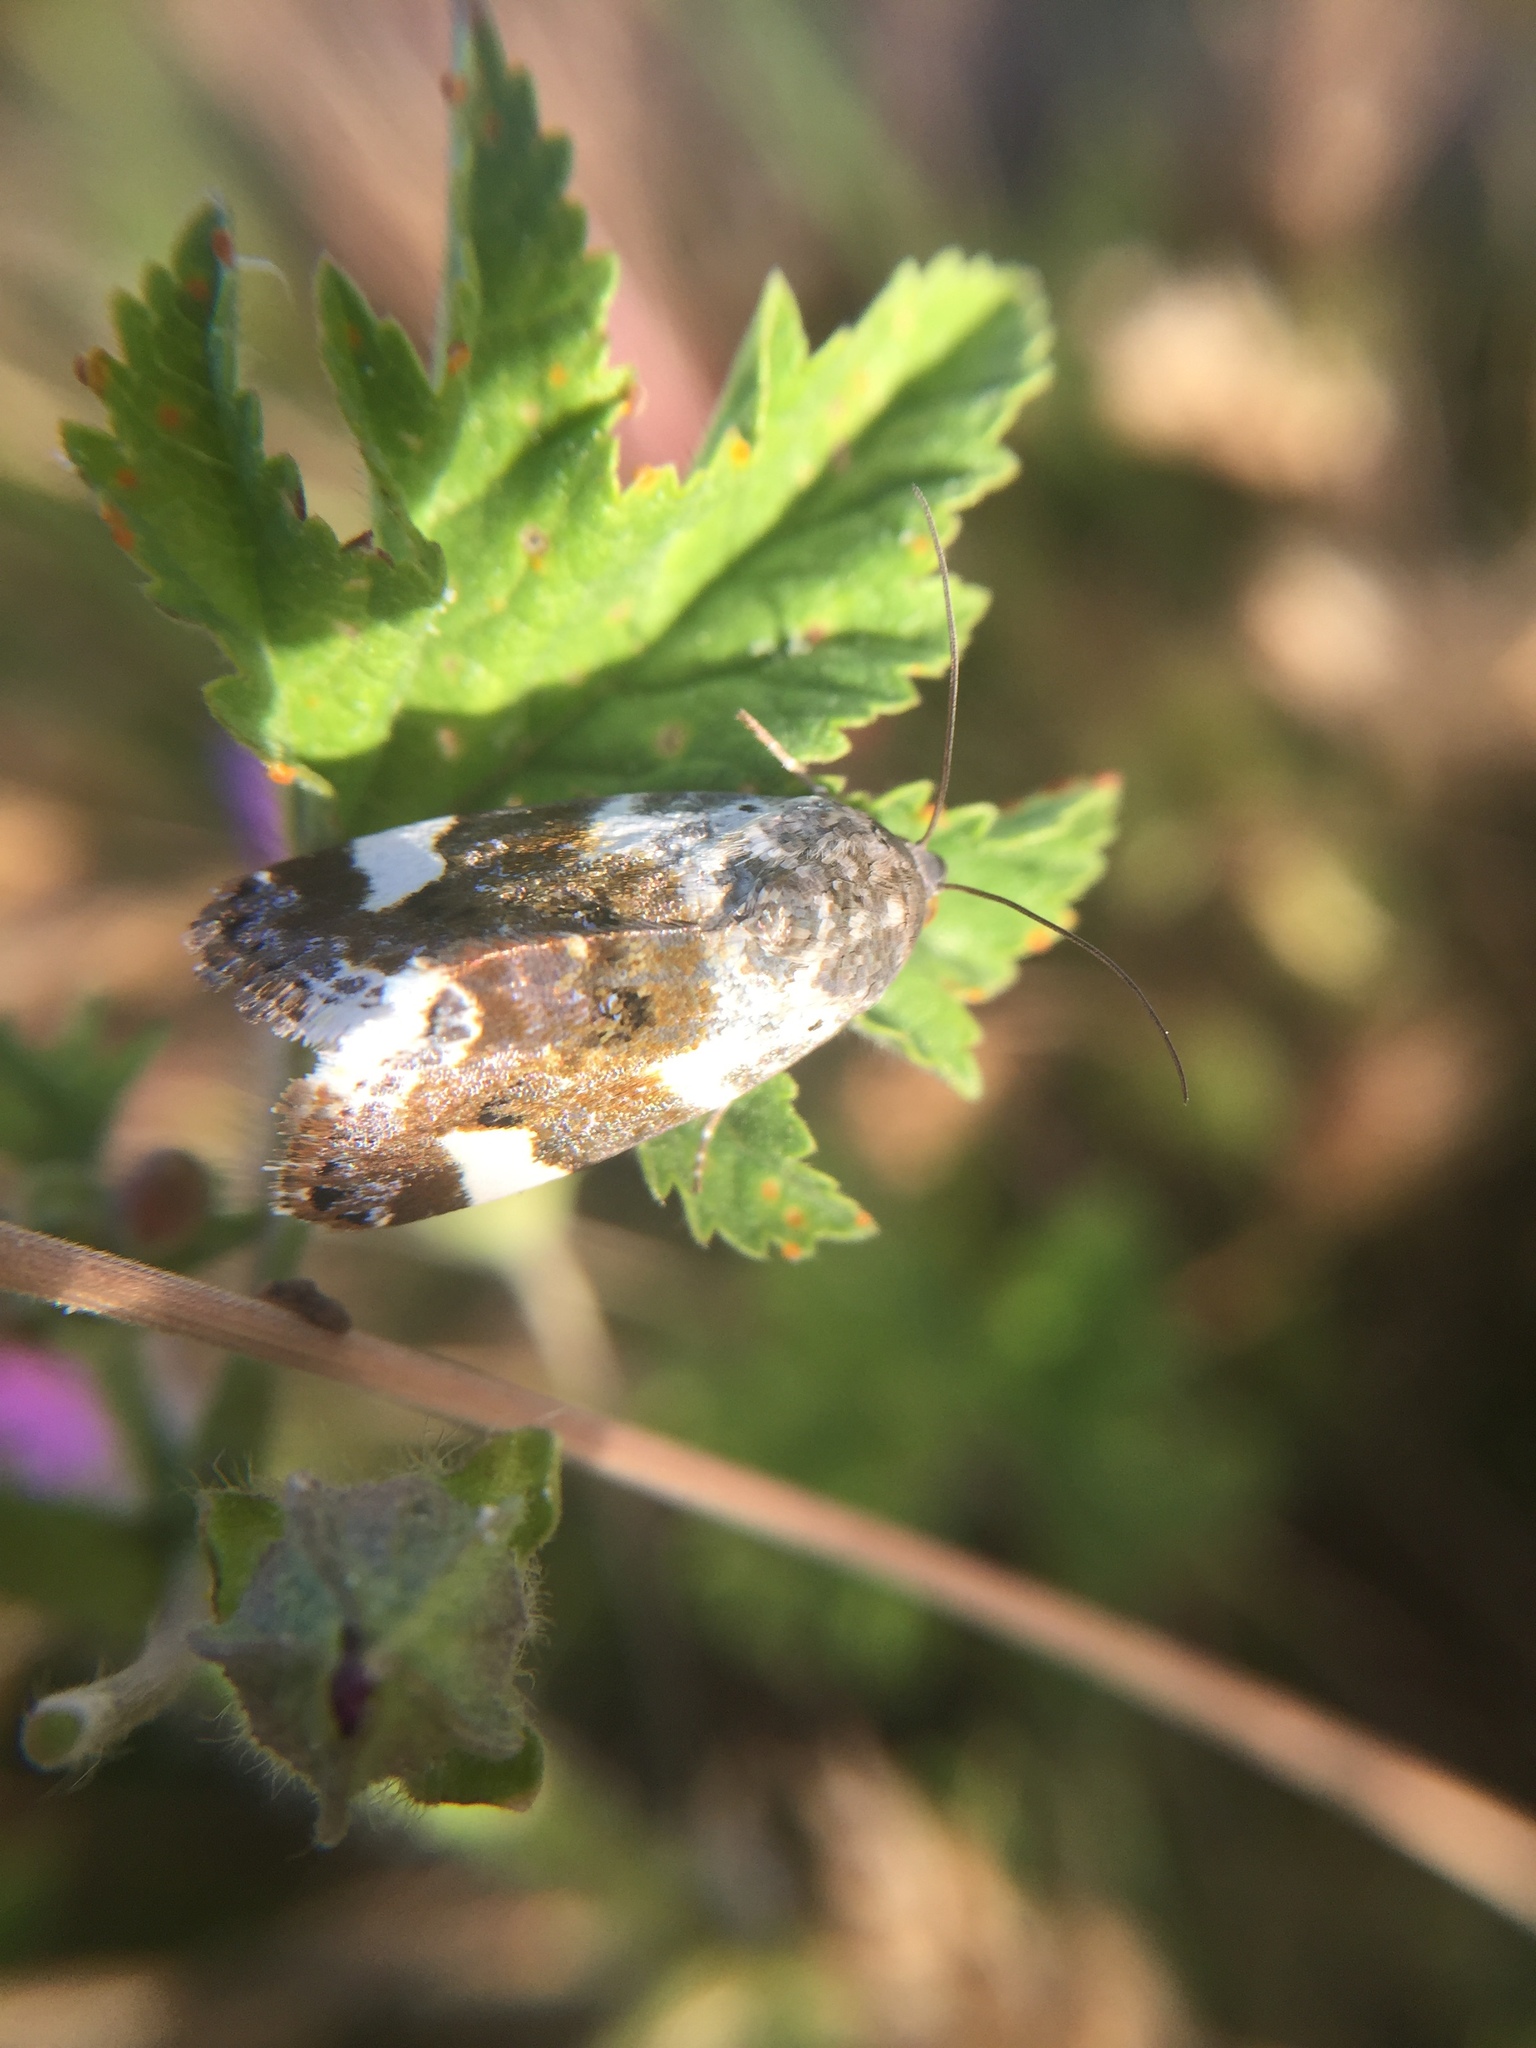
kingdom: Animalia
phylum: Arthropoda
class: Insecta
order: Lepidoptera
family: Noctuidae
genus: Acontia
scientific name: Acontia lucida
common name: Pale shoulder
